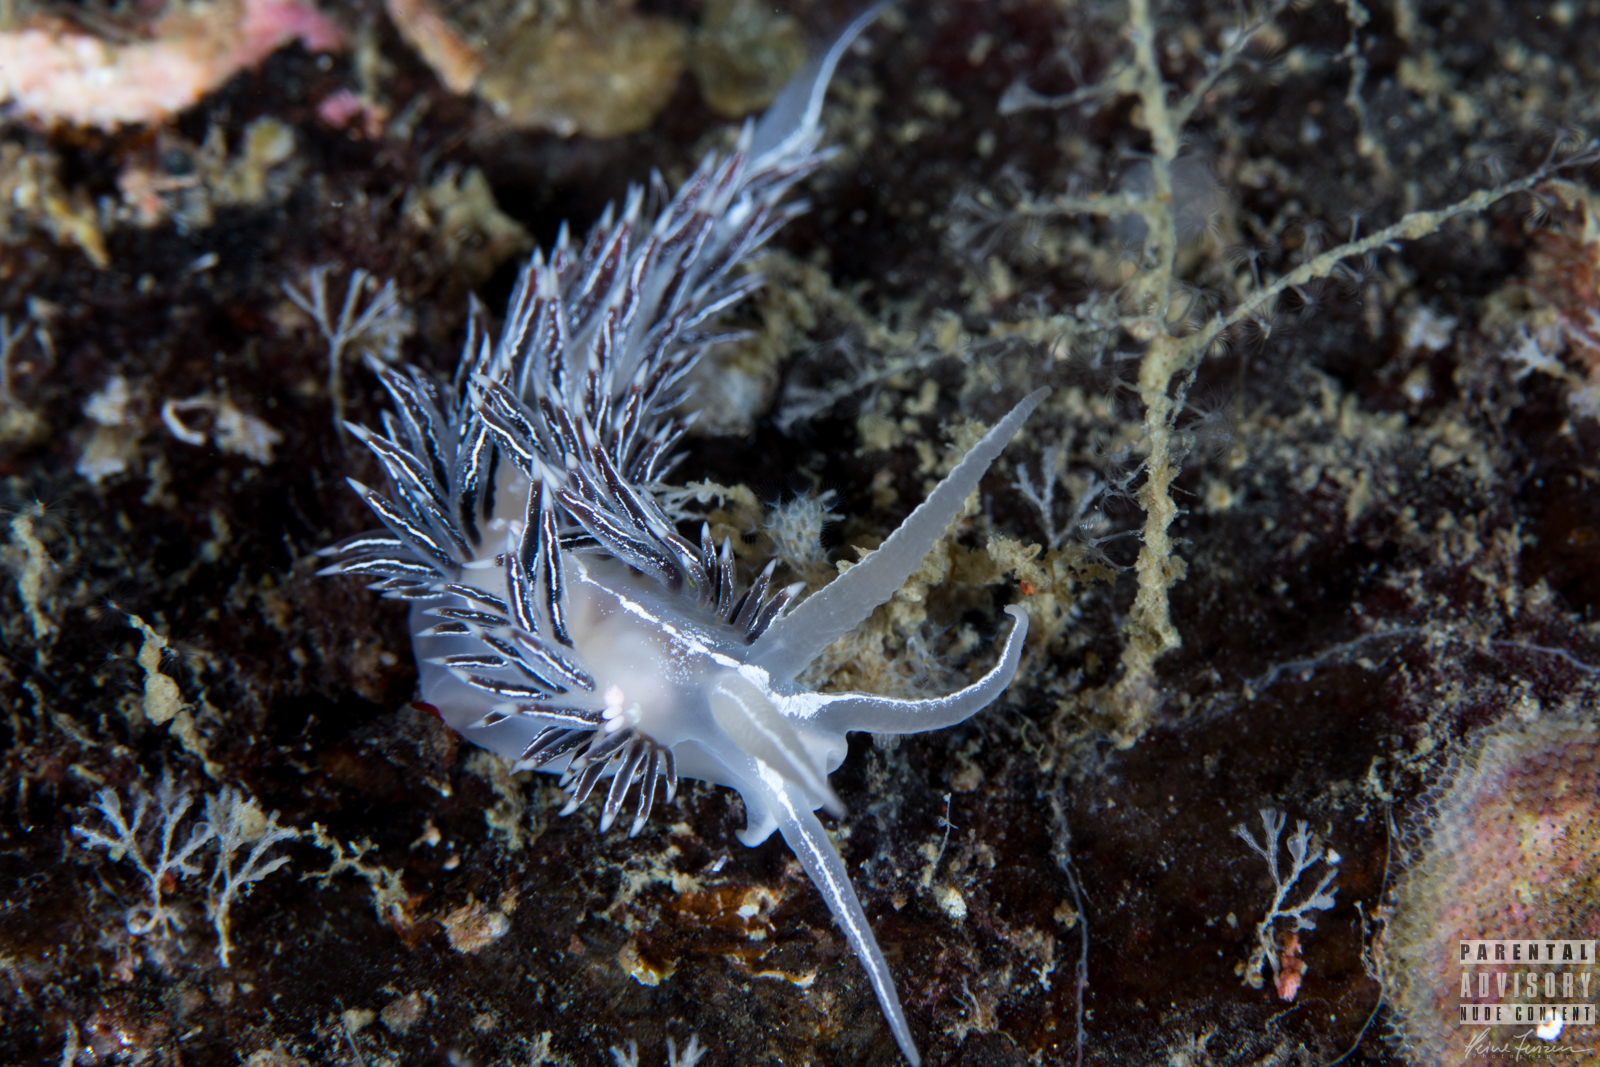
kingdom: Animalia
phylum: Mollusca
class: Gastropoda
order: Nudibranchia
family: Coryphellidae
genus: Coryphella
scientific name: Coryphella chriskaugei
